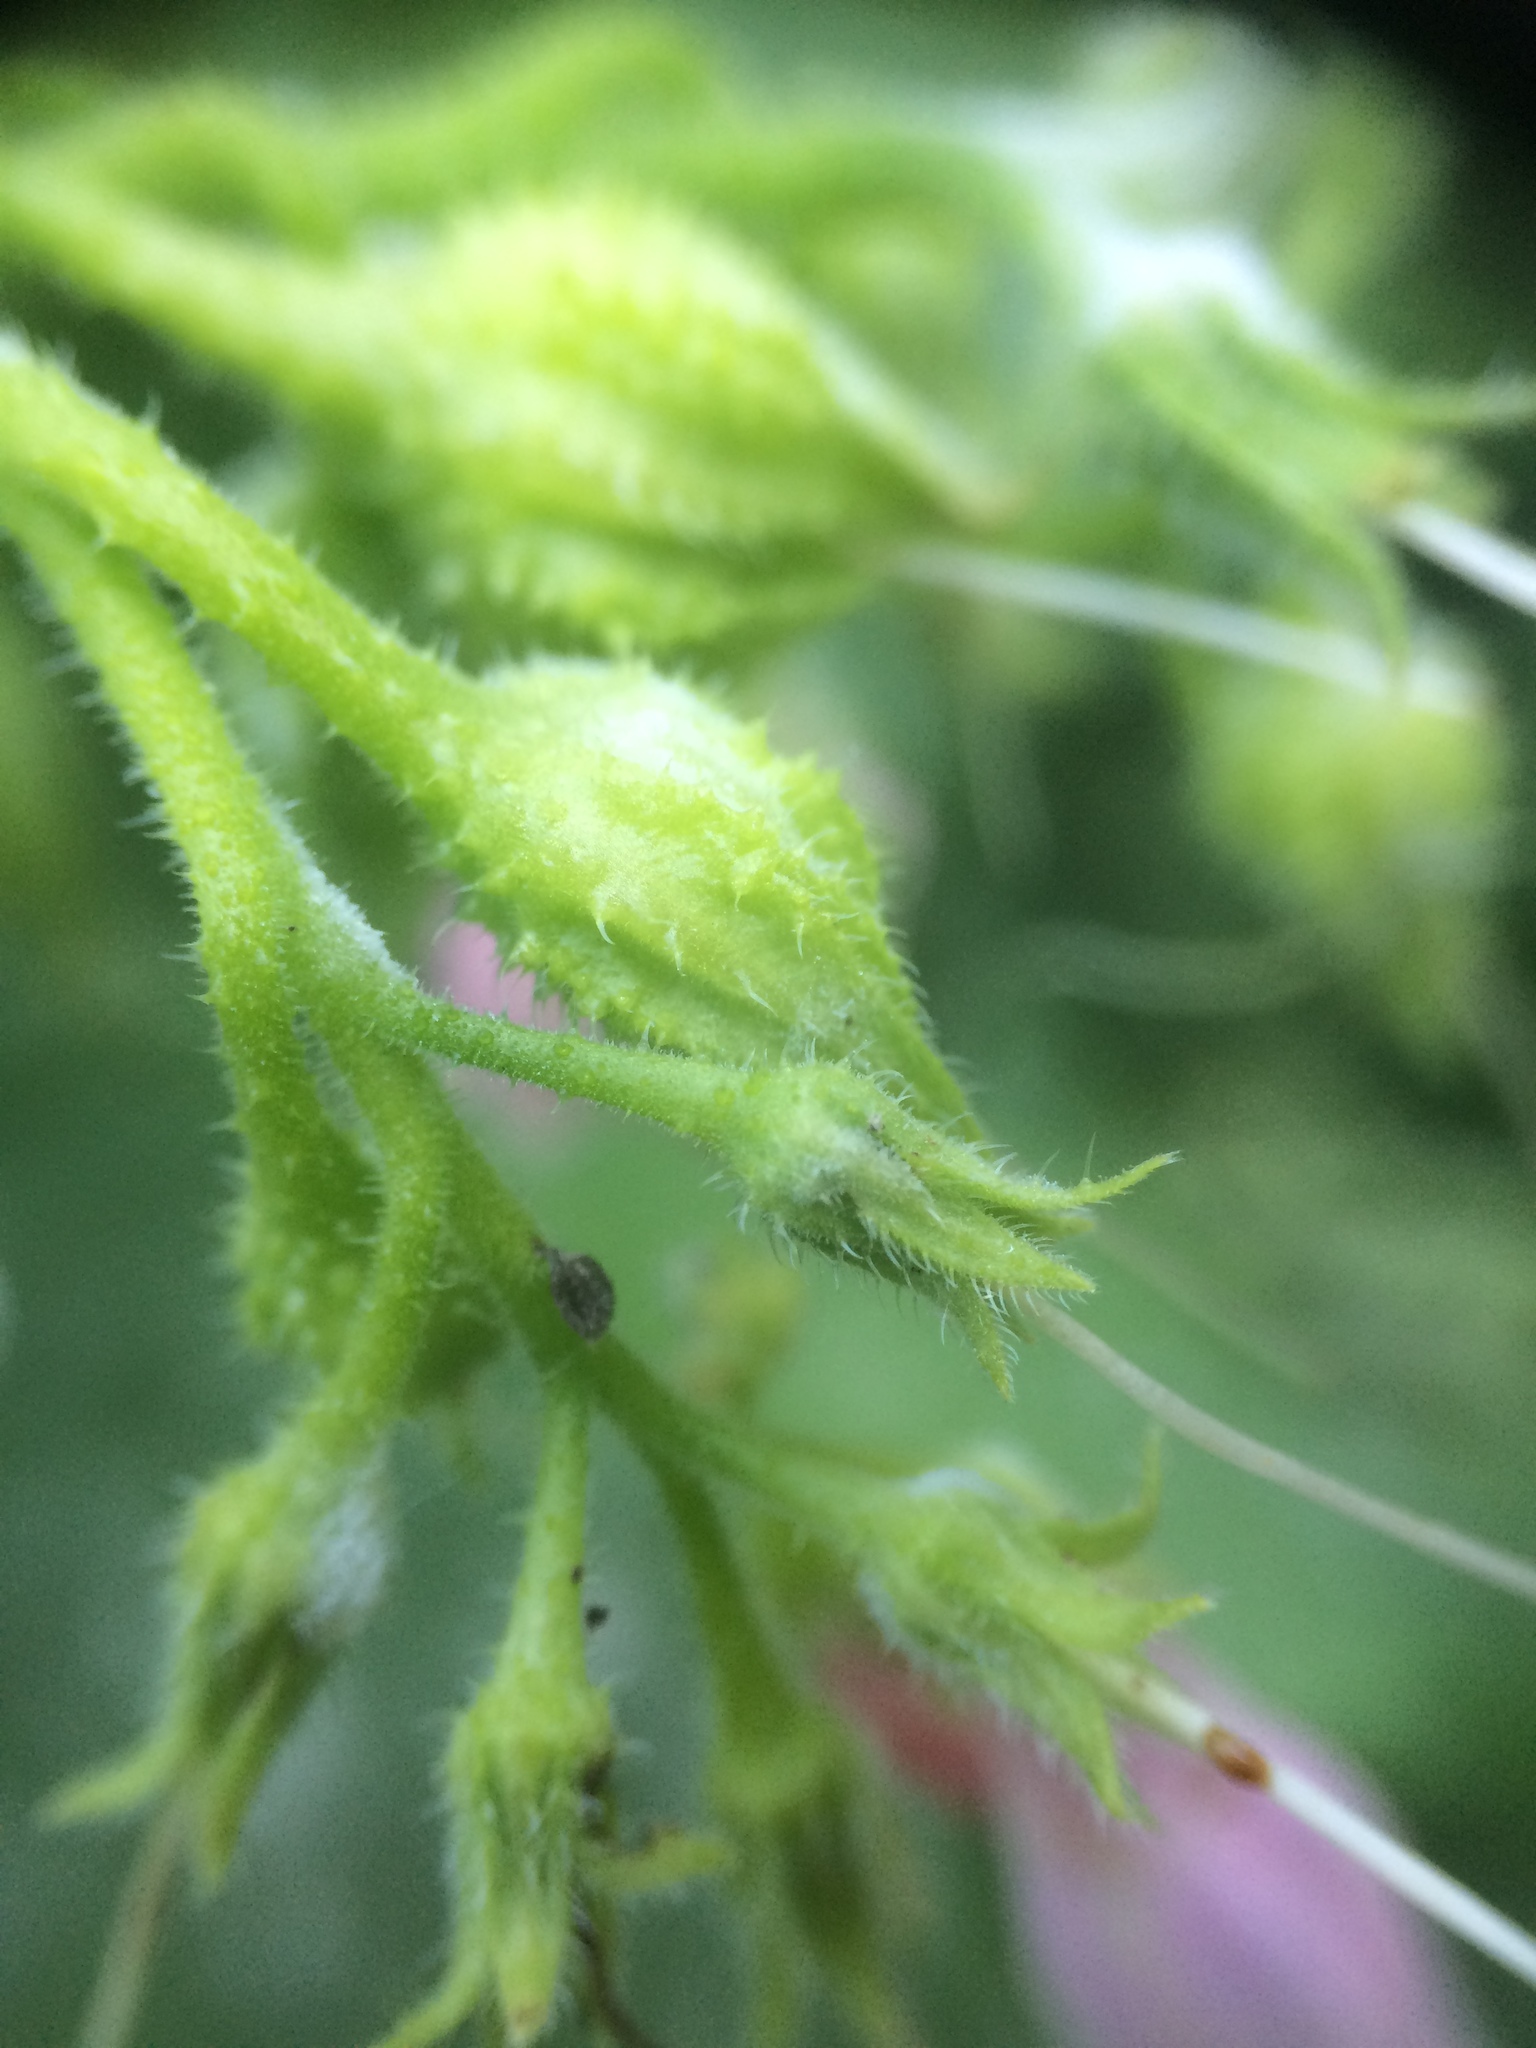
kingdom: Plantae
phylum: Tracheophyta
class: Magnoliopsida
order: Boraginales
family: Boraginaceae
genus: Symphytum
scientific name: Symphytum officinale
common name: Common comfrey
